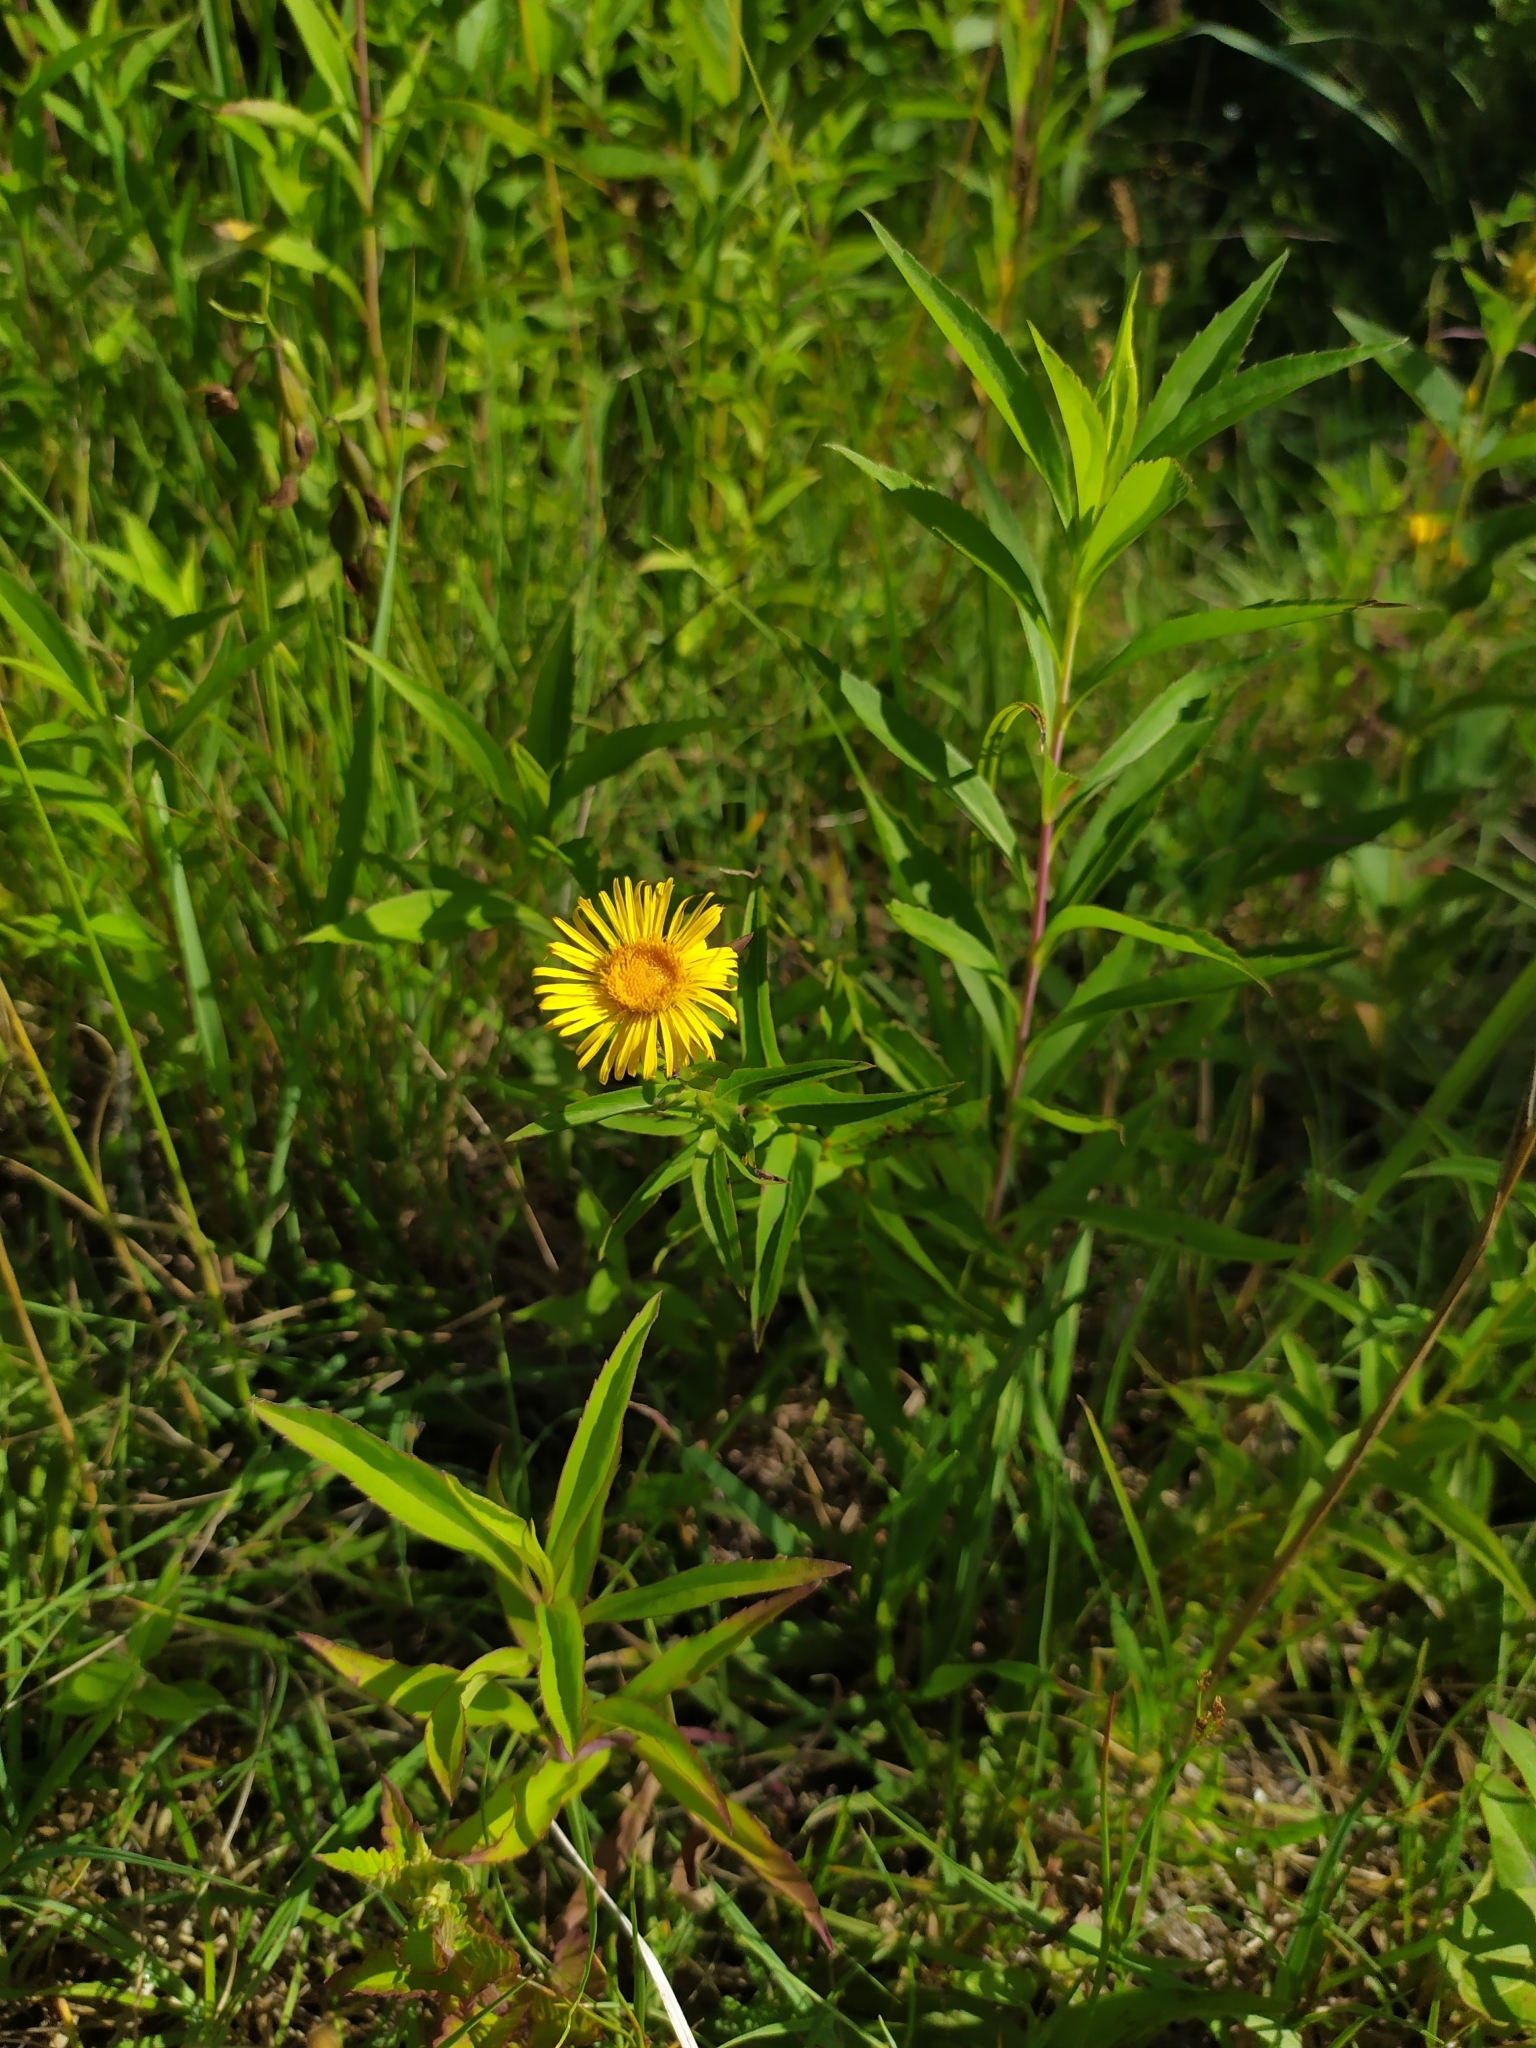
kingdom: Plantae
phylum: Tracheophyta
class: Magnoliopsida
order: Asterales
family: Asteraceae
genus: Pentanema
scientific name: Pentanema salicinum
